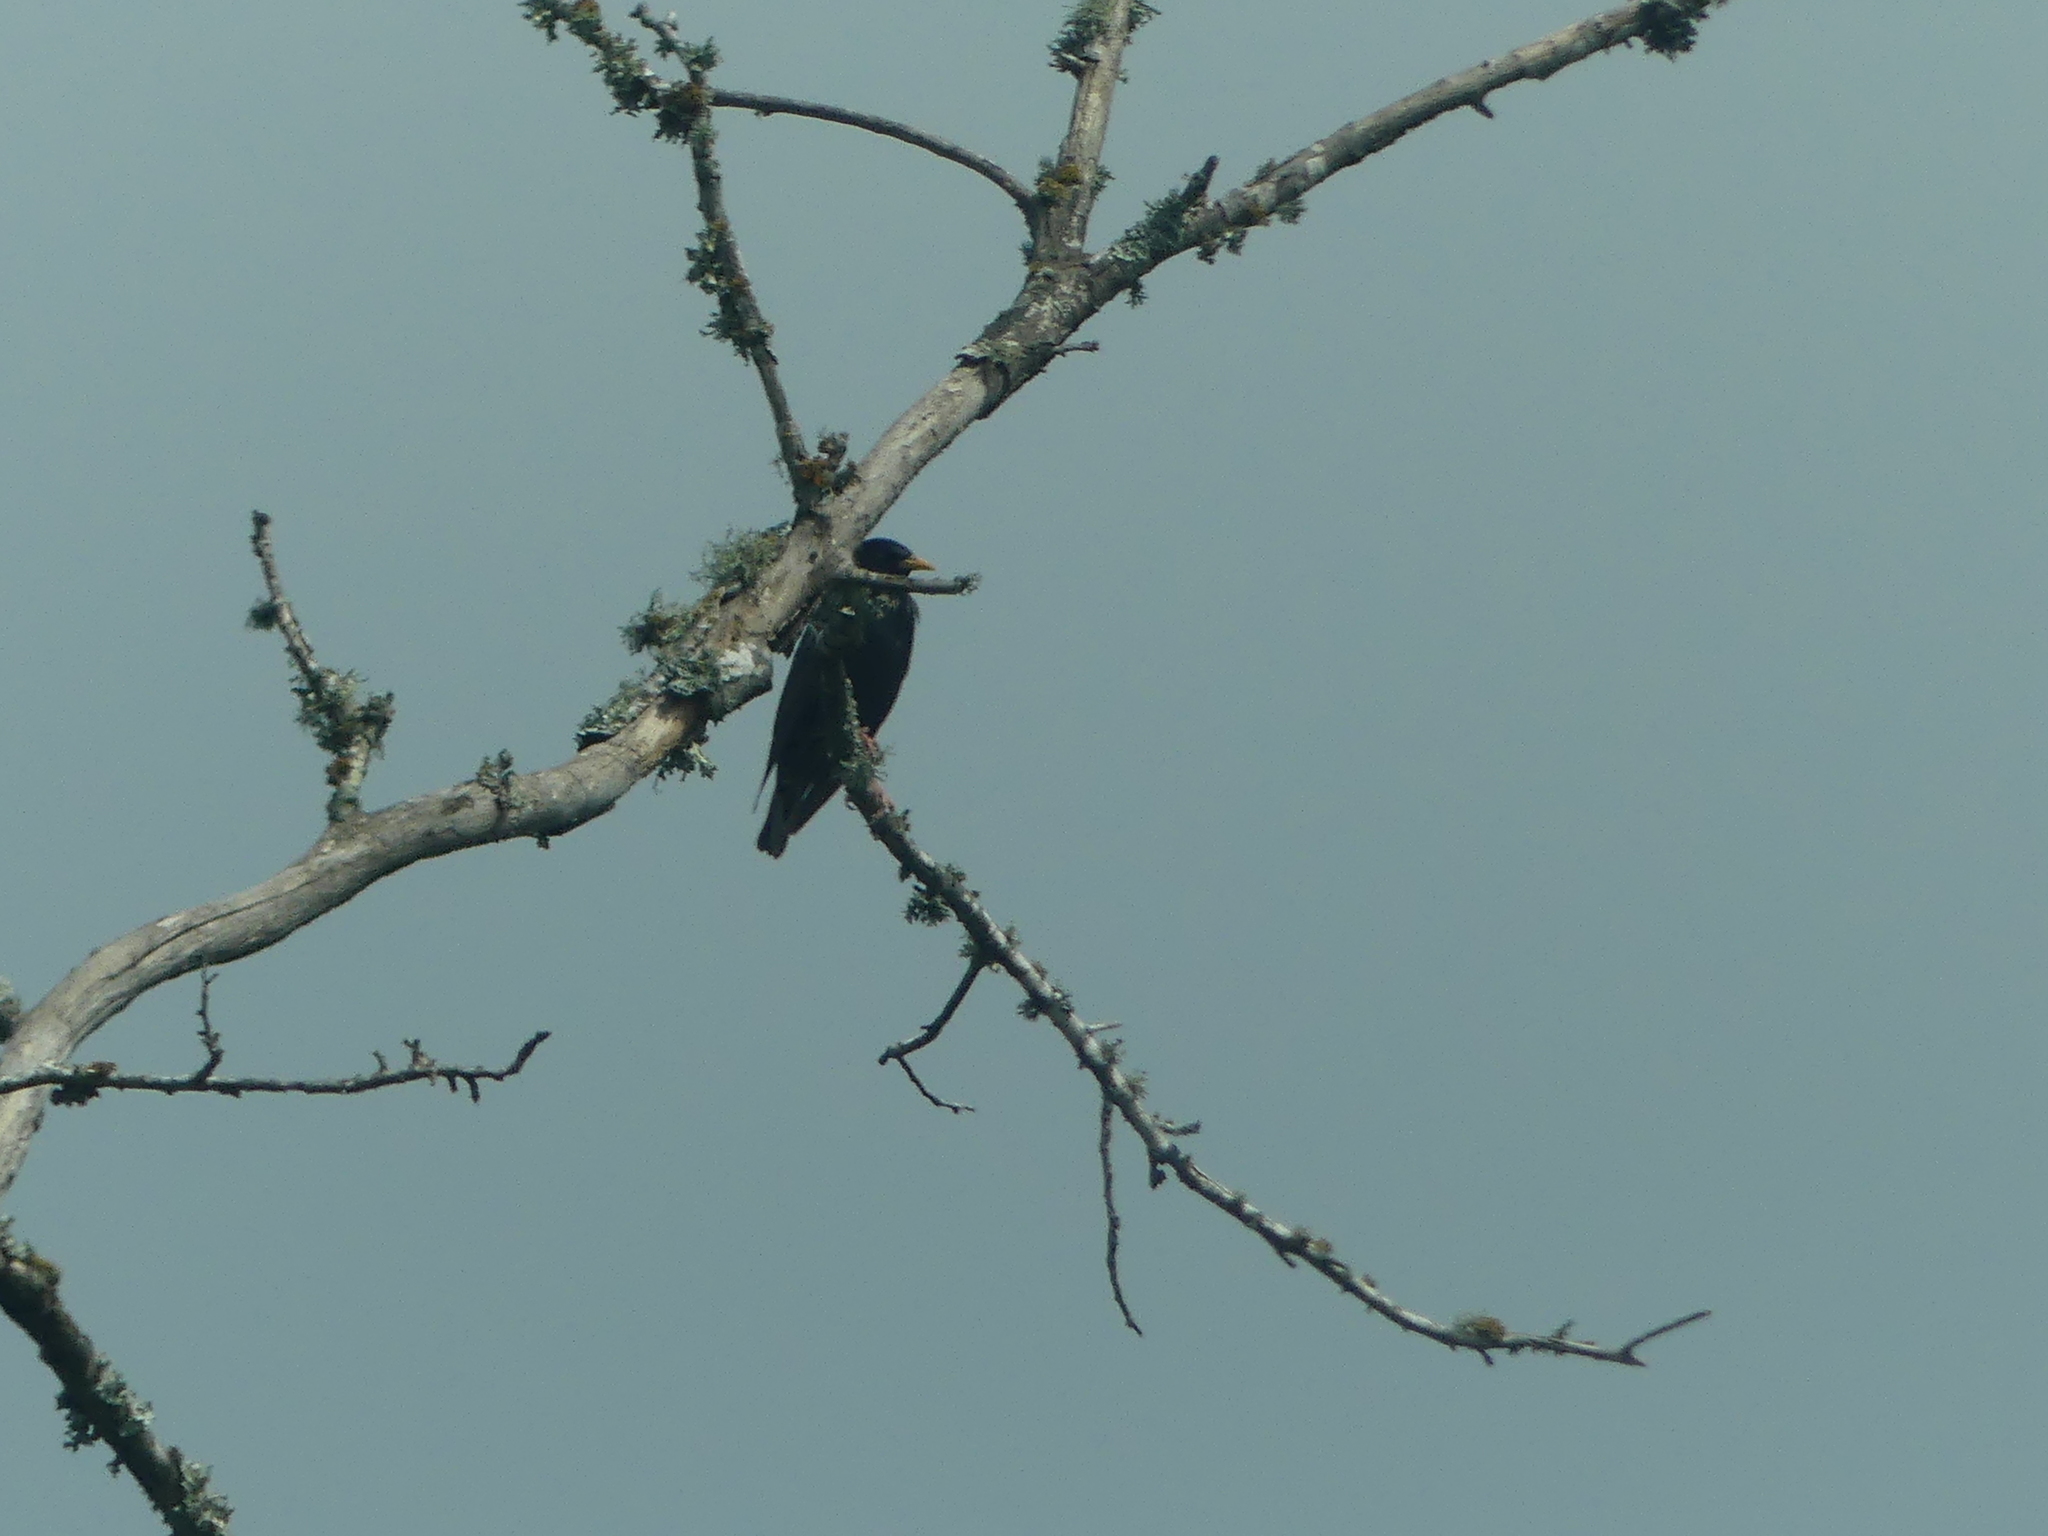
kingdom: Animalia
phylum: Chordata
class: Aves
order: Passeriformes
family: Sturnidae
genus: Sturnus
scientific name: Sturnus vulgaris
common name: Common starling
